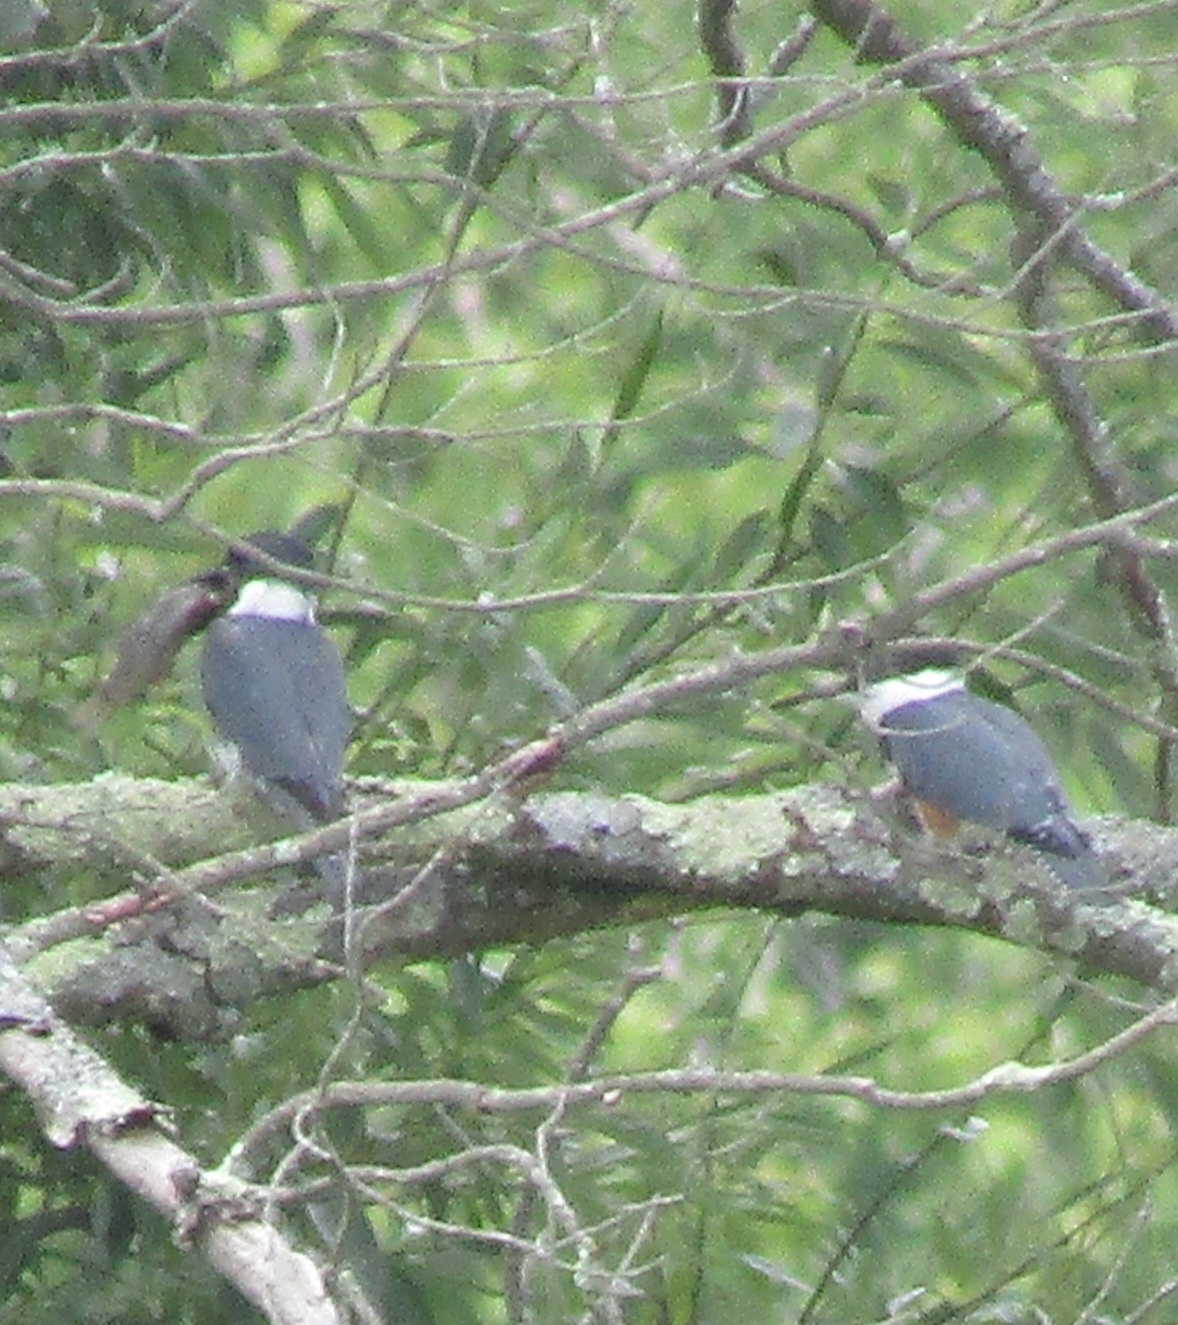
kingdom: Animalia
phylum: Chordata
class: Aves
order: Coraciiformes
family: Alcedinidae
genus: Megaceryle
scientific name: Megaceryle alcyon
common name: Belted kingfisher
